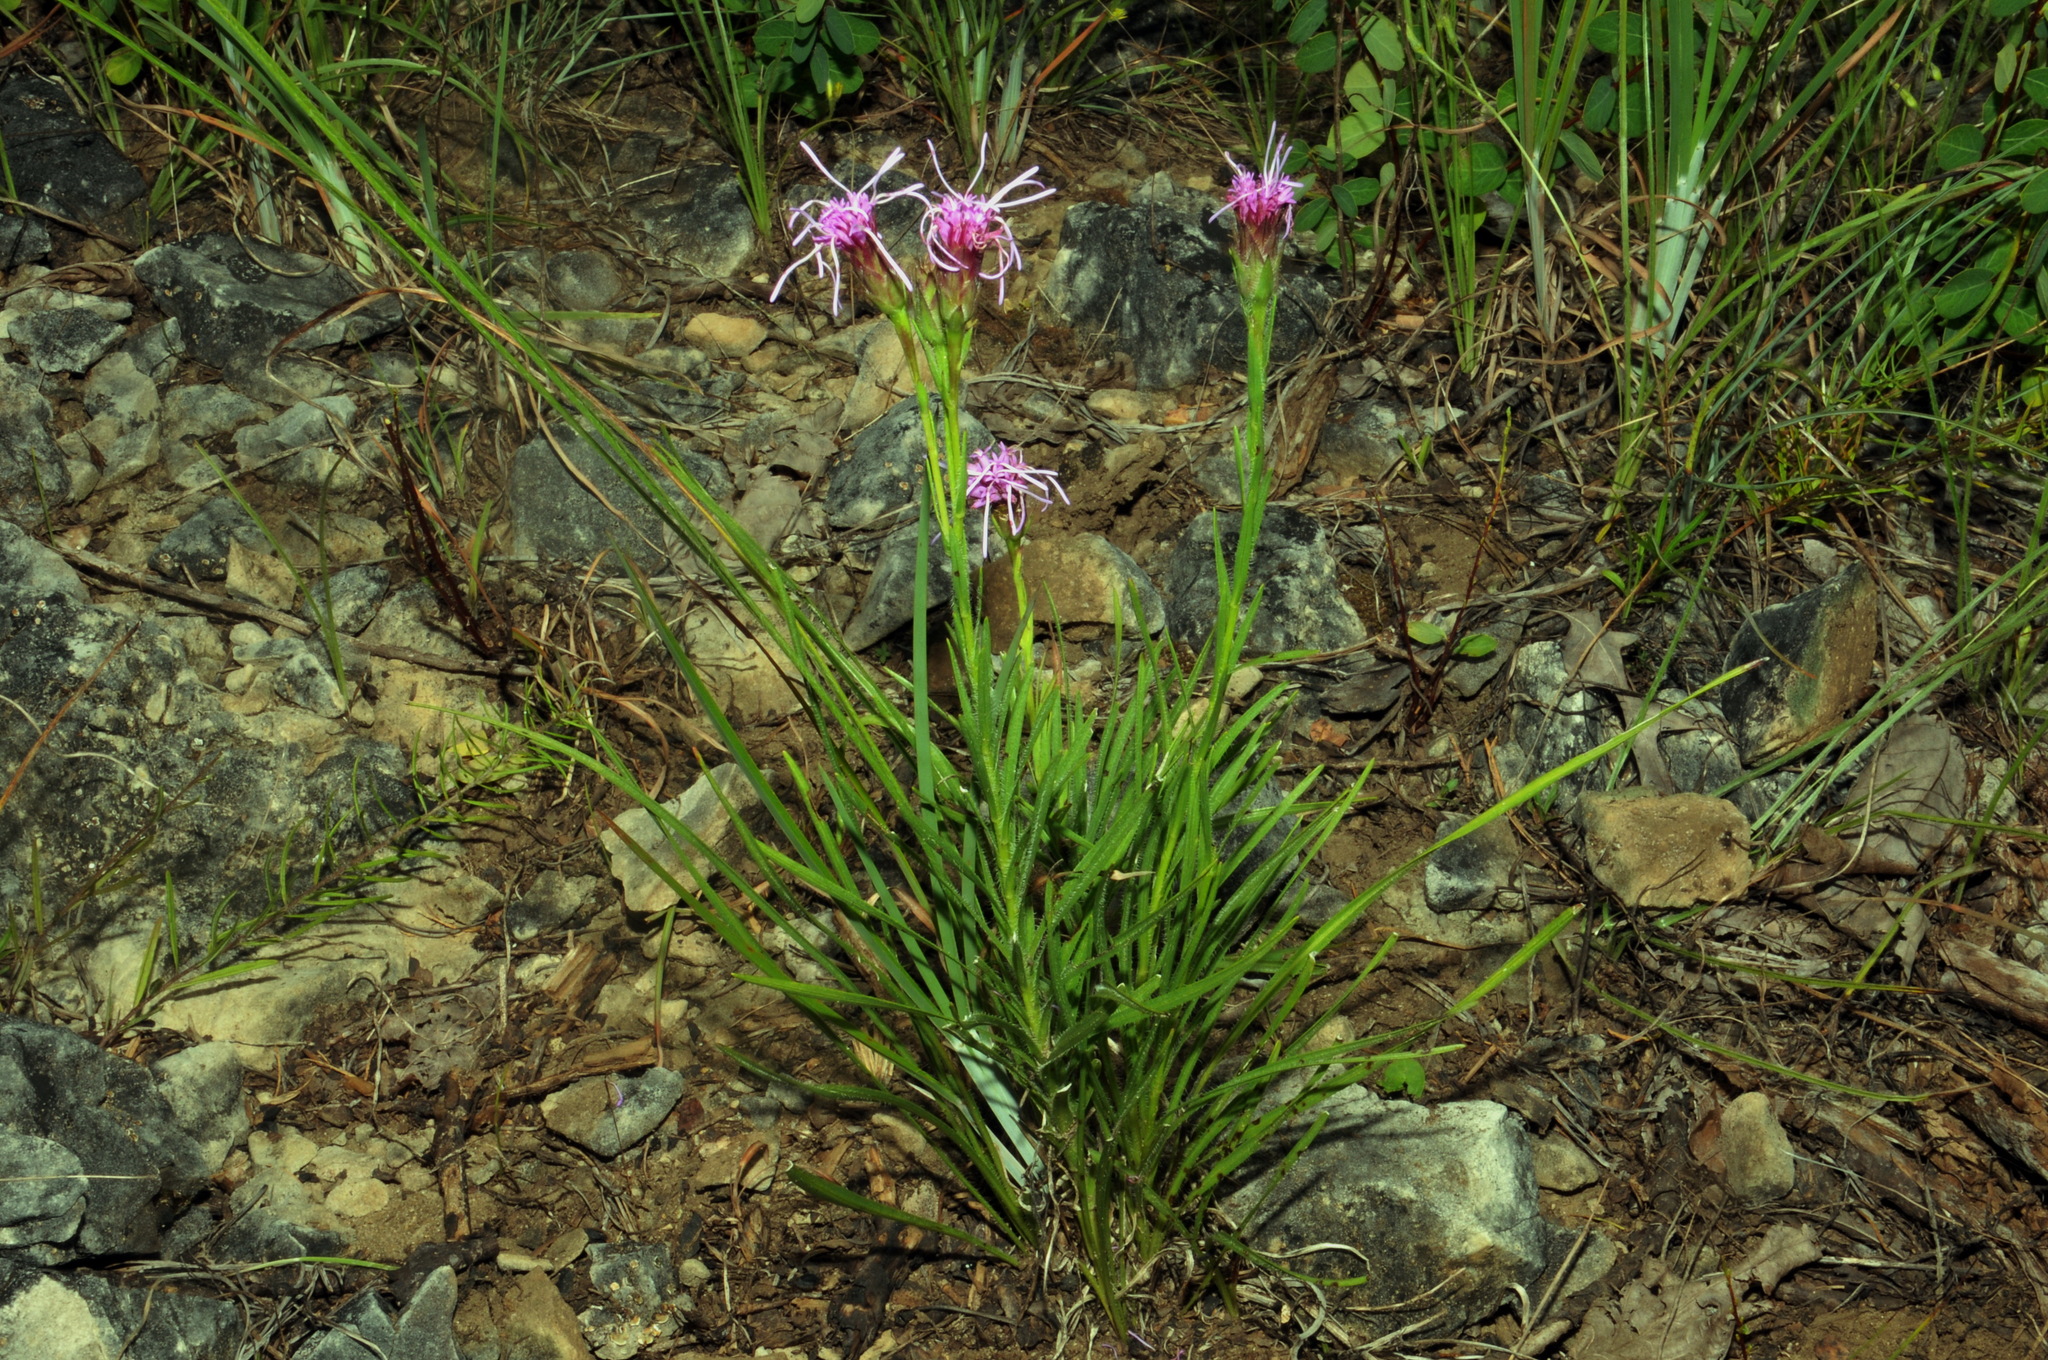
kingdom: Plantae
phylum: Tracheophyta
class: Magnoliopsida
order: Asterales
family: Asteraceae
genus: Liatris
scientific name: Liatris oligocephala
